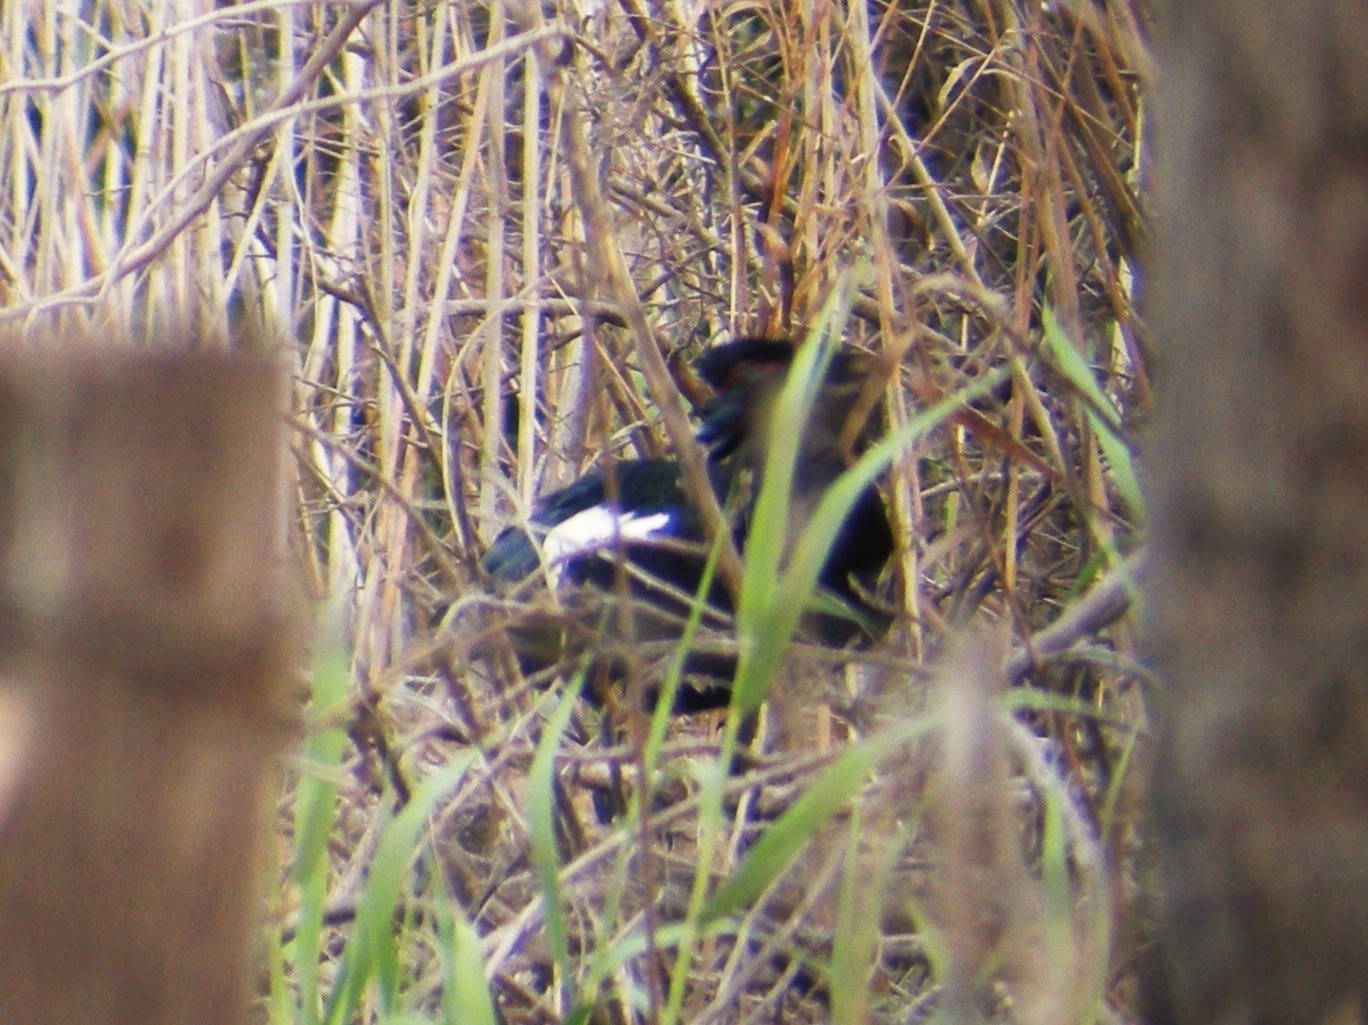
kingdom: Animalia
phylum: Chordata
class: Aves
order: Anseriformes
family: Anatidae
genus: Cairina
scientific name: Cairina moschata
